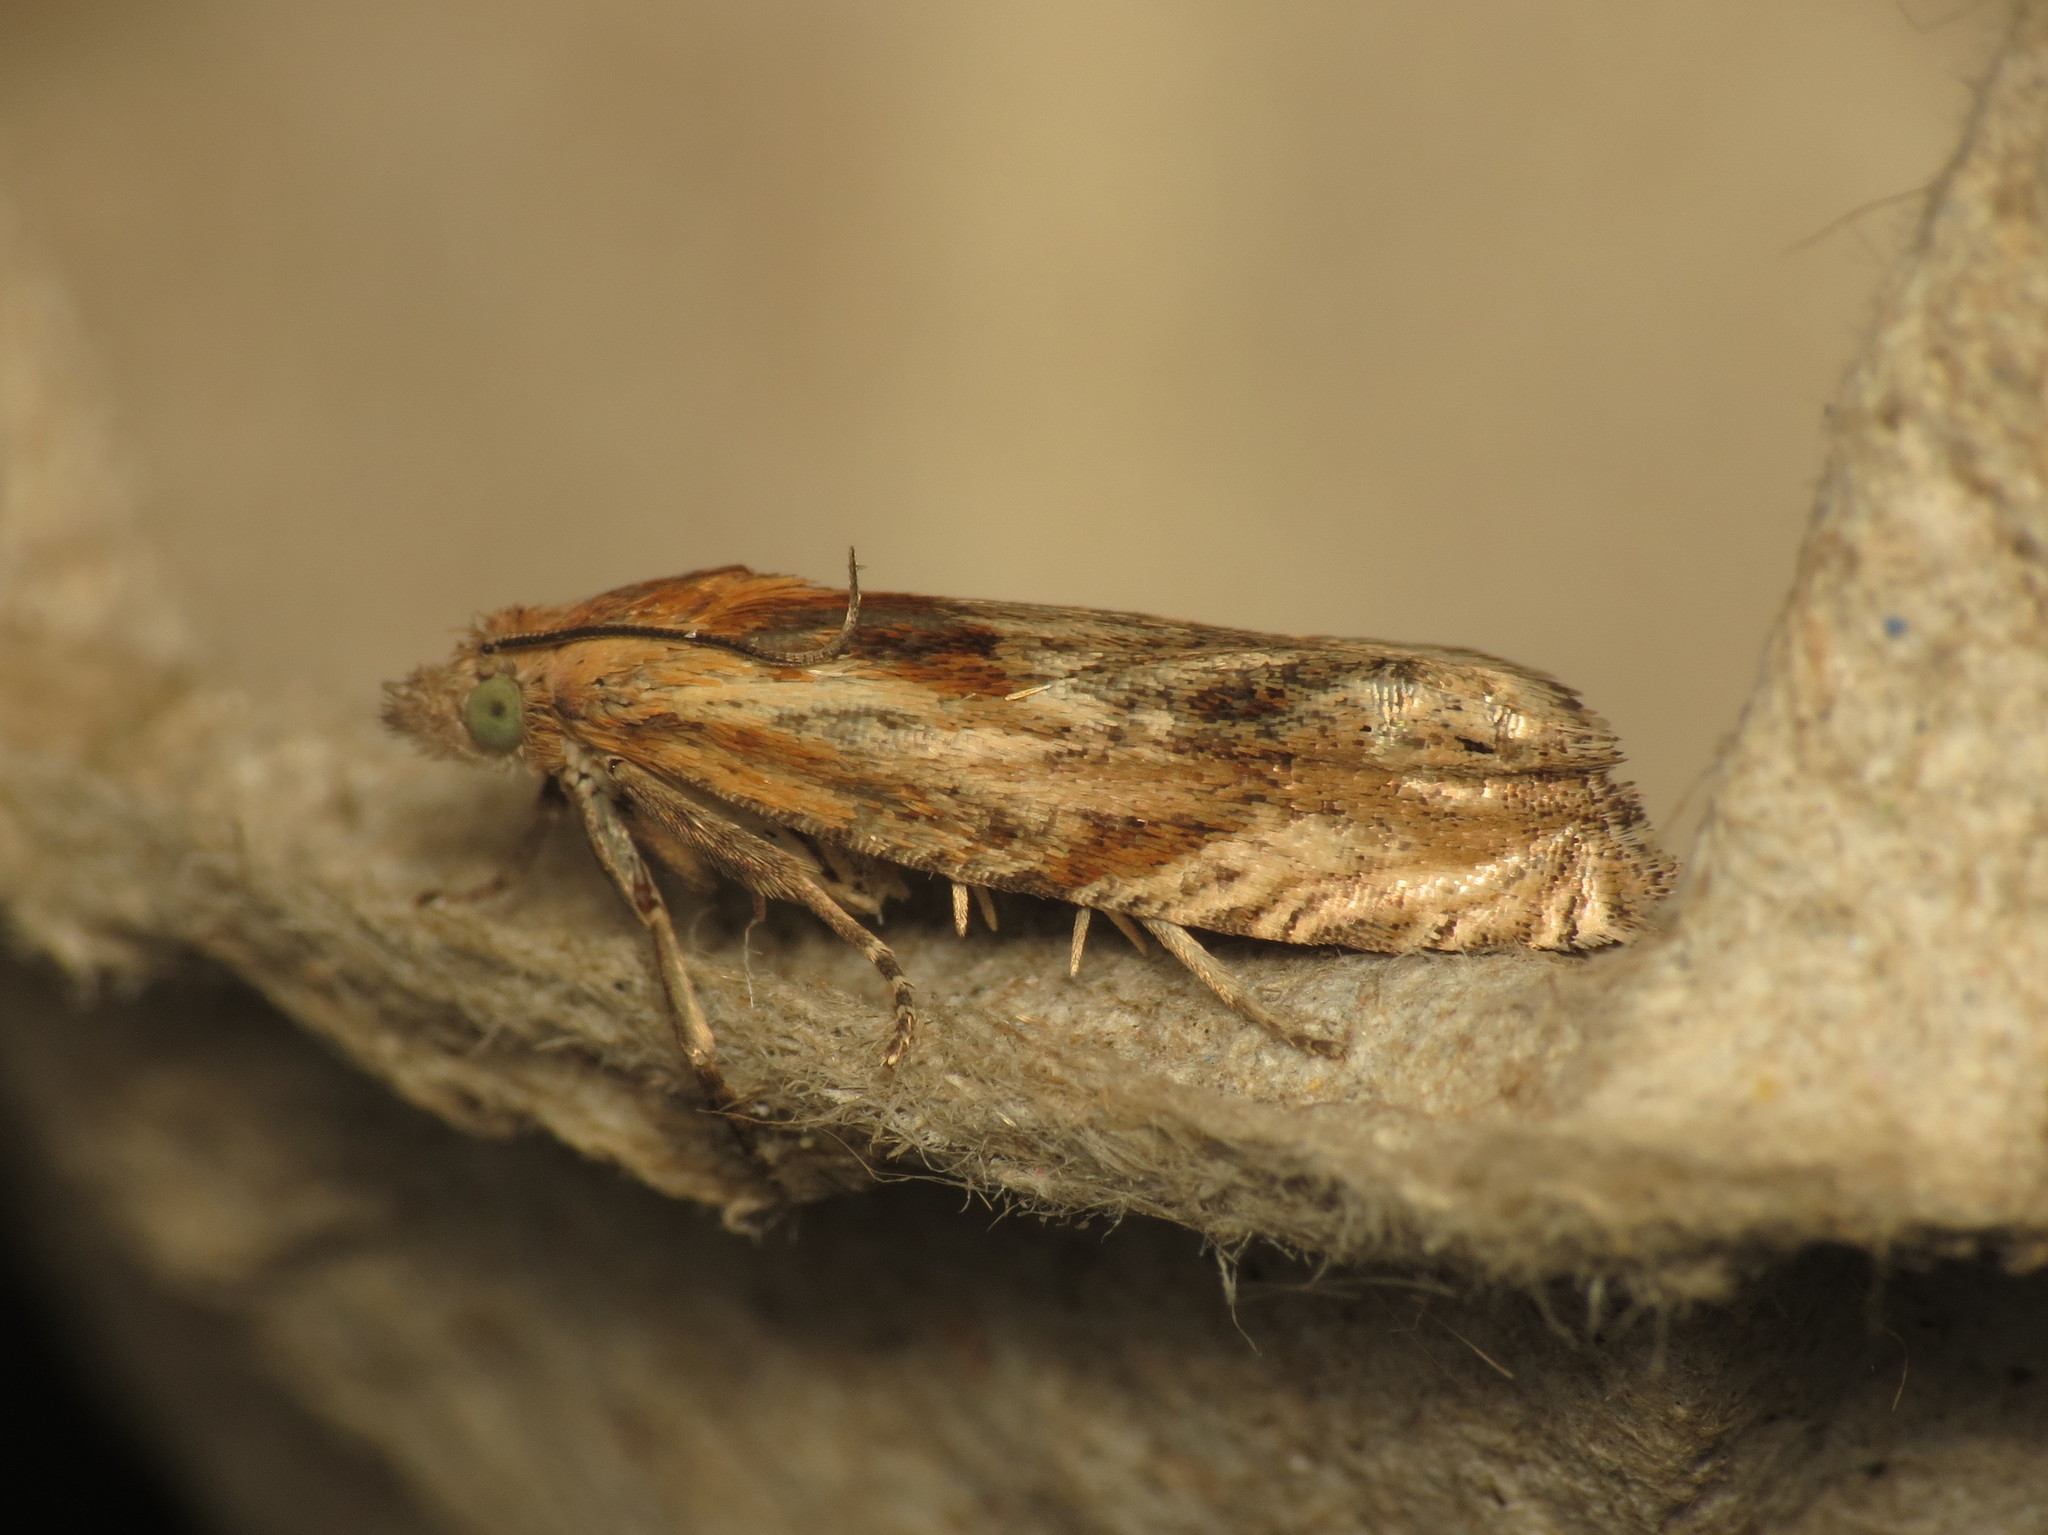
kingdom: Animalia
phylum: Arthropoda
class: Insecta
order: Lepidoptera
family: Tortricidae
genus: Eucosma
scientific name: Eucosma cana
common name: Hoary belle
